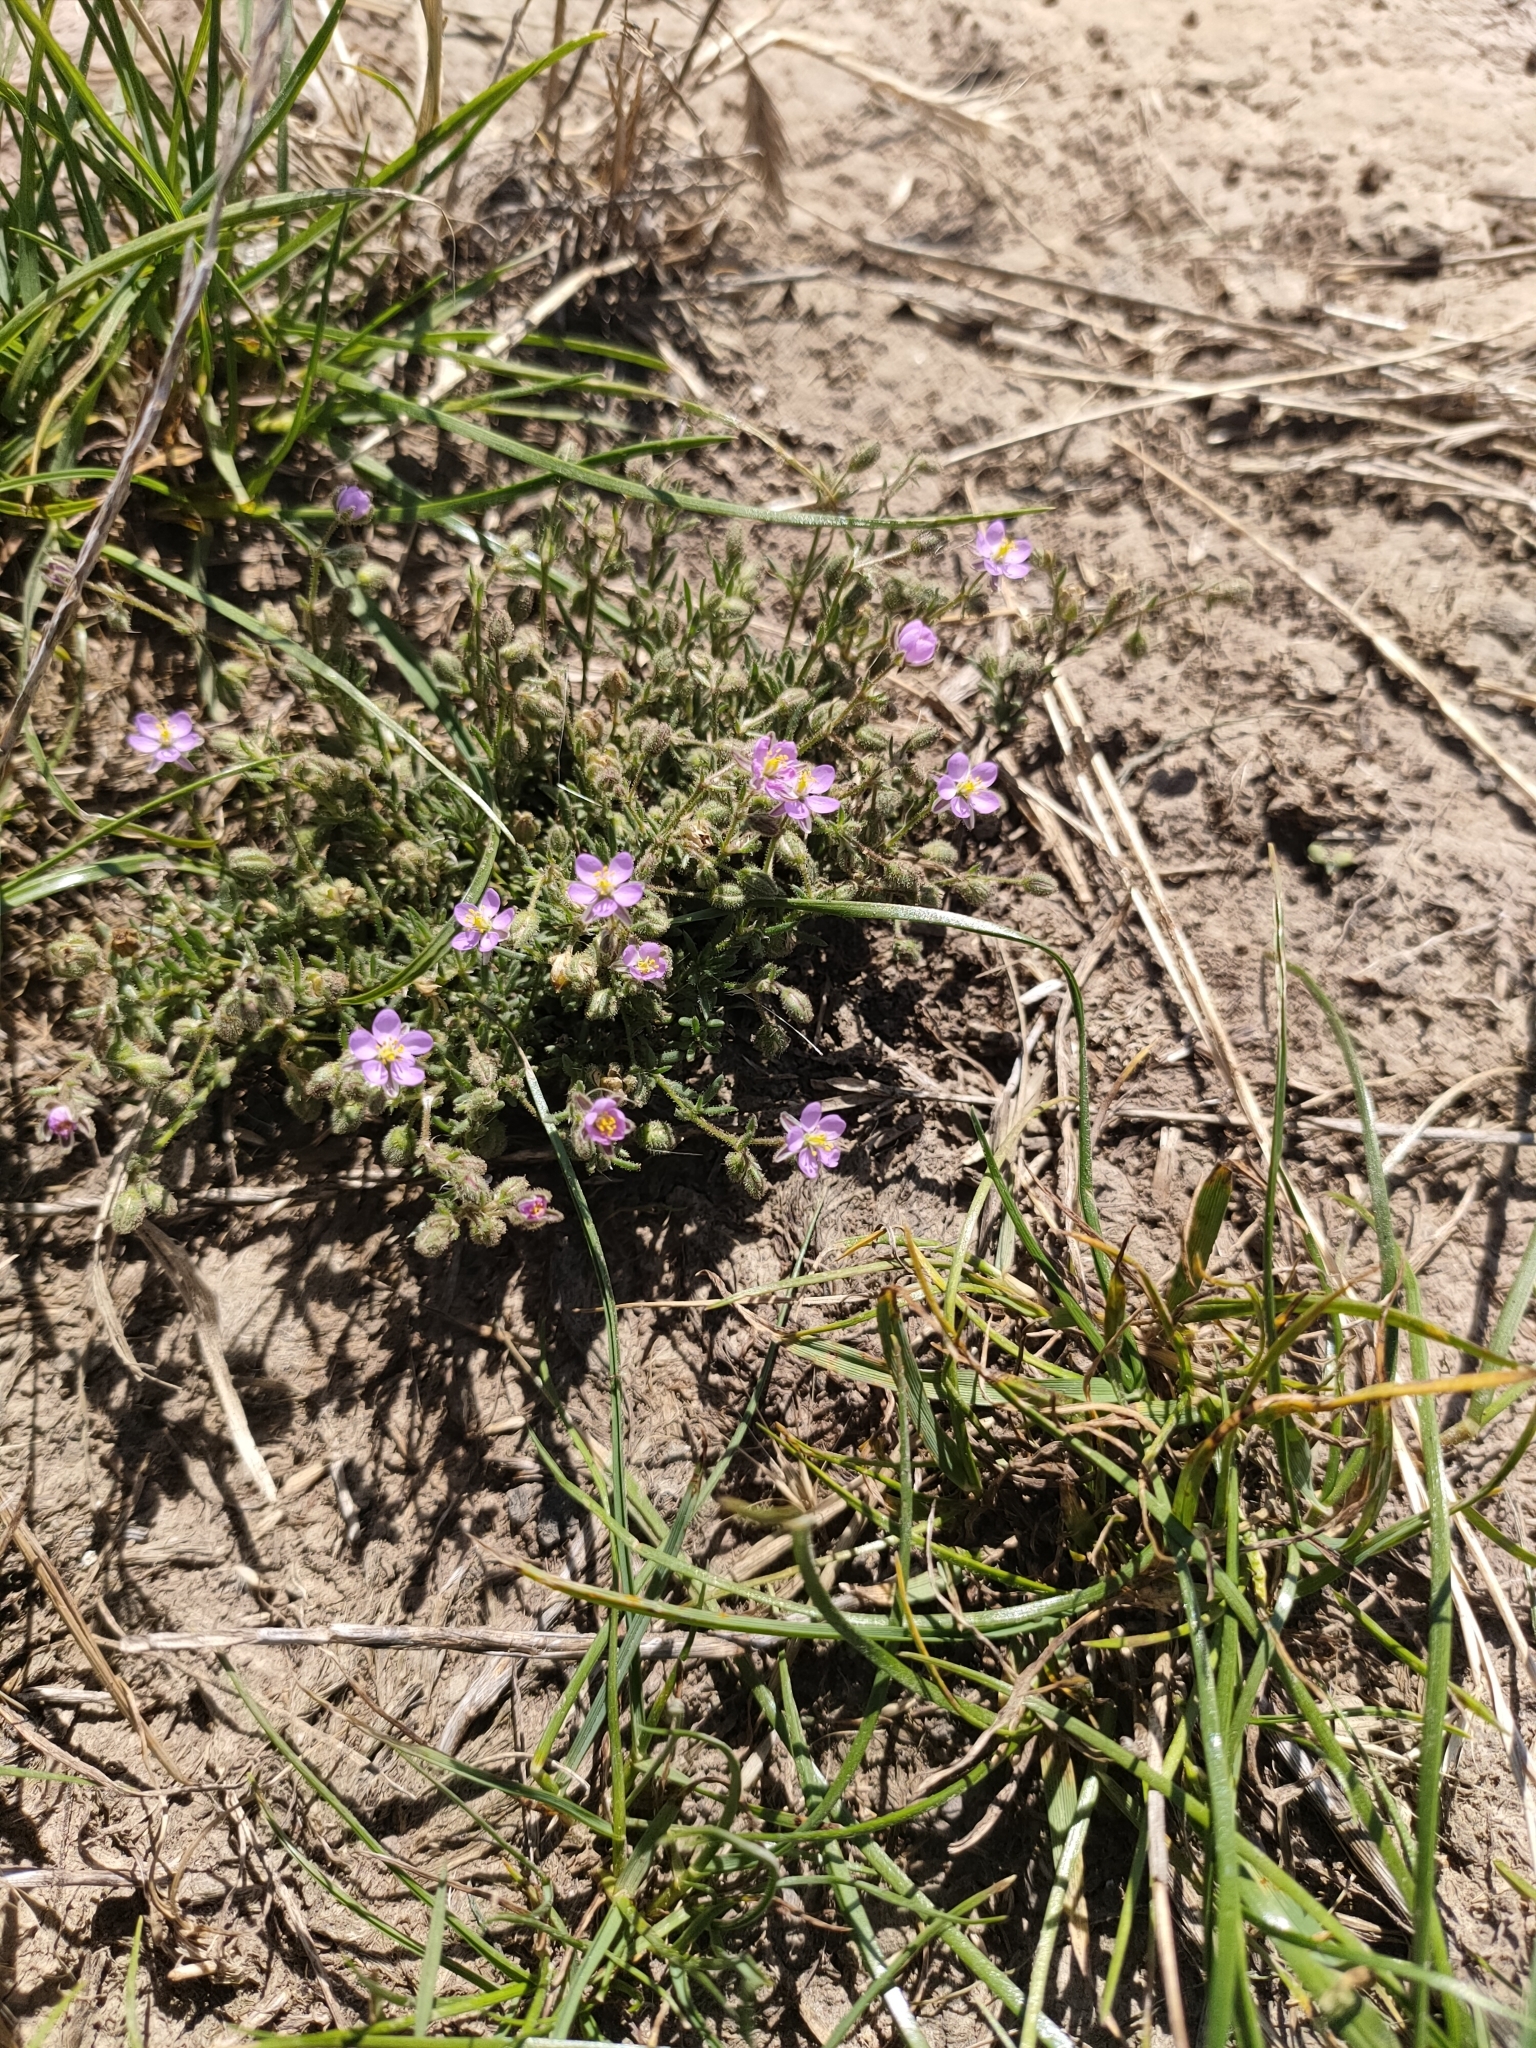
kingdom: Plantae
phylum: Tracheophyta
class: Magnoliopsida
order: Caryophyllales
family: Caryophyllaceae
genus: Spergularia
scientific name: Spergularia rubra
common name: Red sand-spurrey
